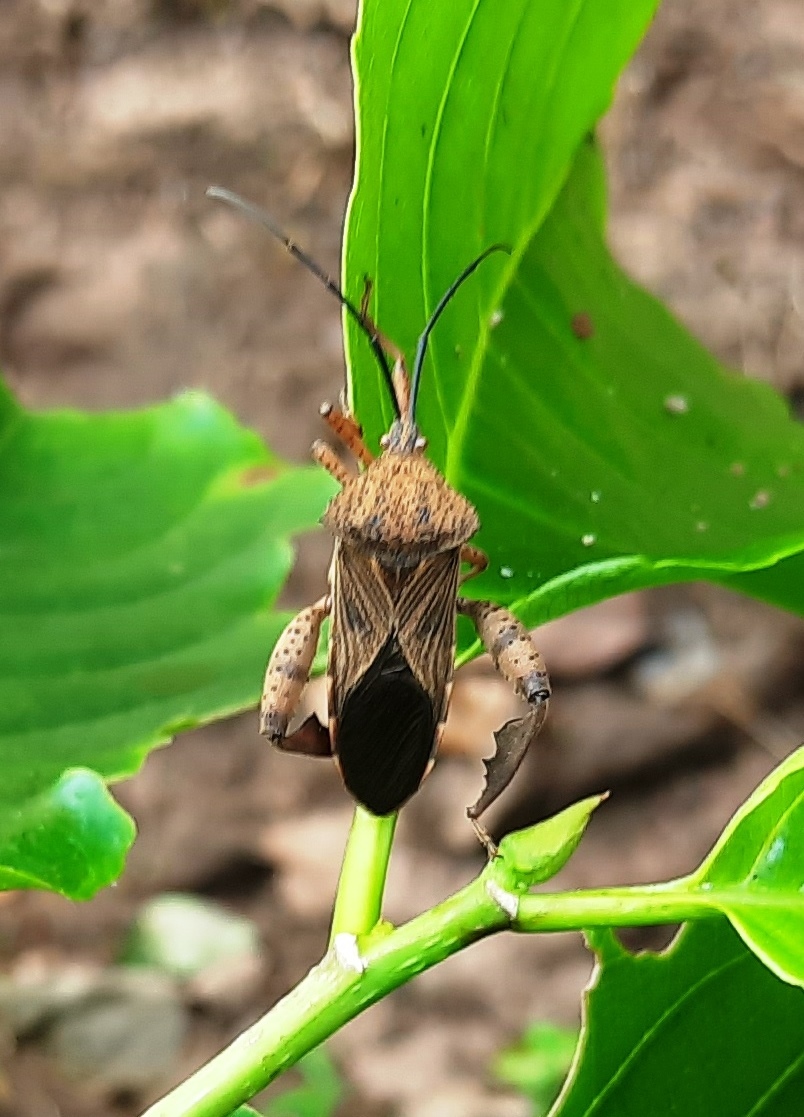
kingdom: Animalia
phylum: Arthropoda
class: Insecta
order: Hemiptera
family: Coreidae
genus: Petillopsis
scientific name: Petillopsis calcar
